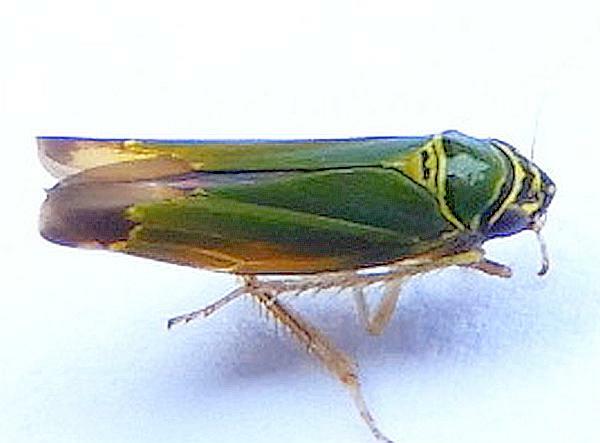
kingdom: Animalia
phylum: Arthropoda
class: Insecta
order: Hemiptera
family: Cicadellidae
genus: Tylozygus
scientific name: Tylozygus geometricus
